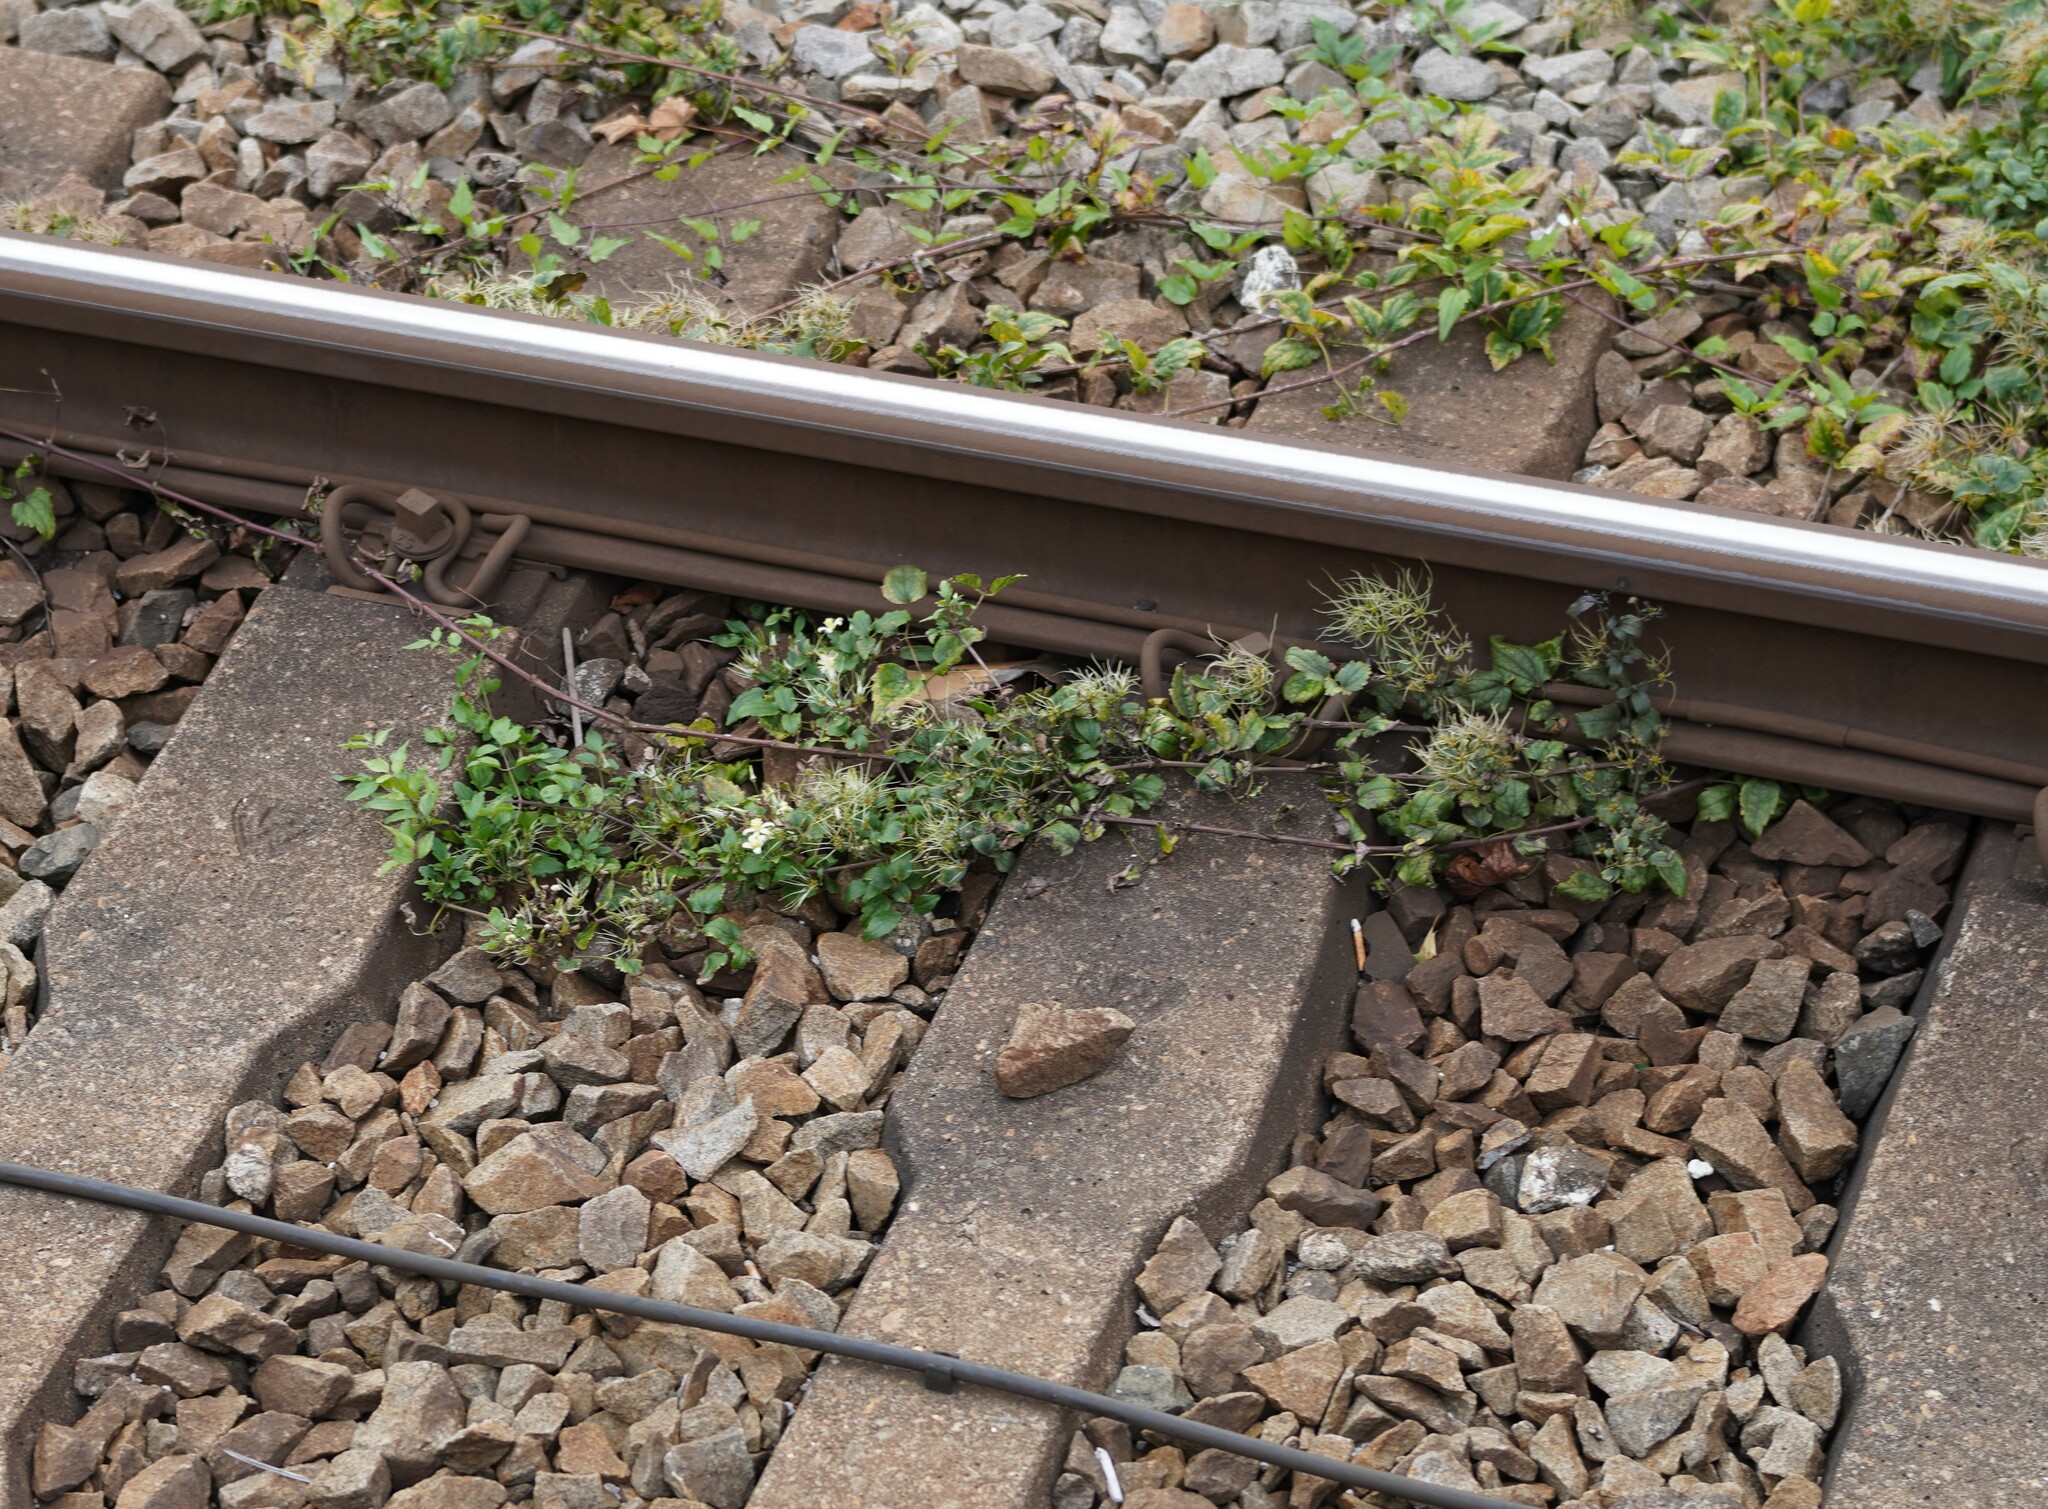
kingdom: Plantae
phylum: Tracheophyta
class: Magnoliopsida
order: Ranunculales
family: Ranunculaceae
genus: Clematis
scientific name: Clematis vitalba
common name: Evergreen clematis
